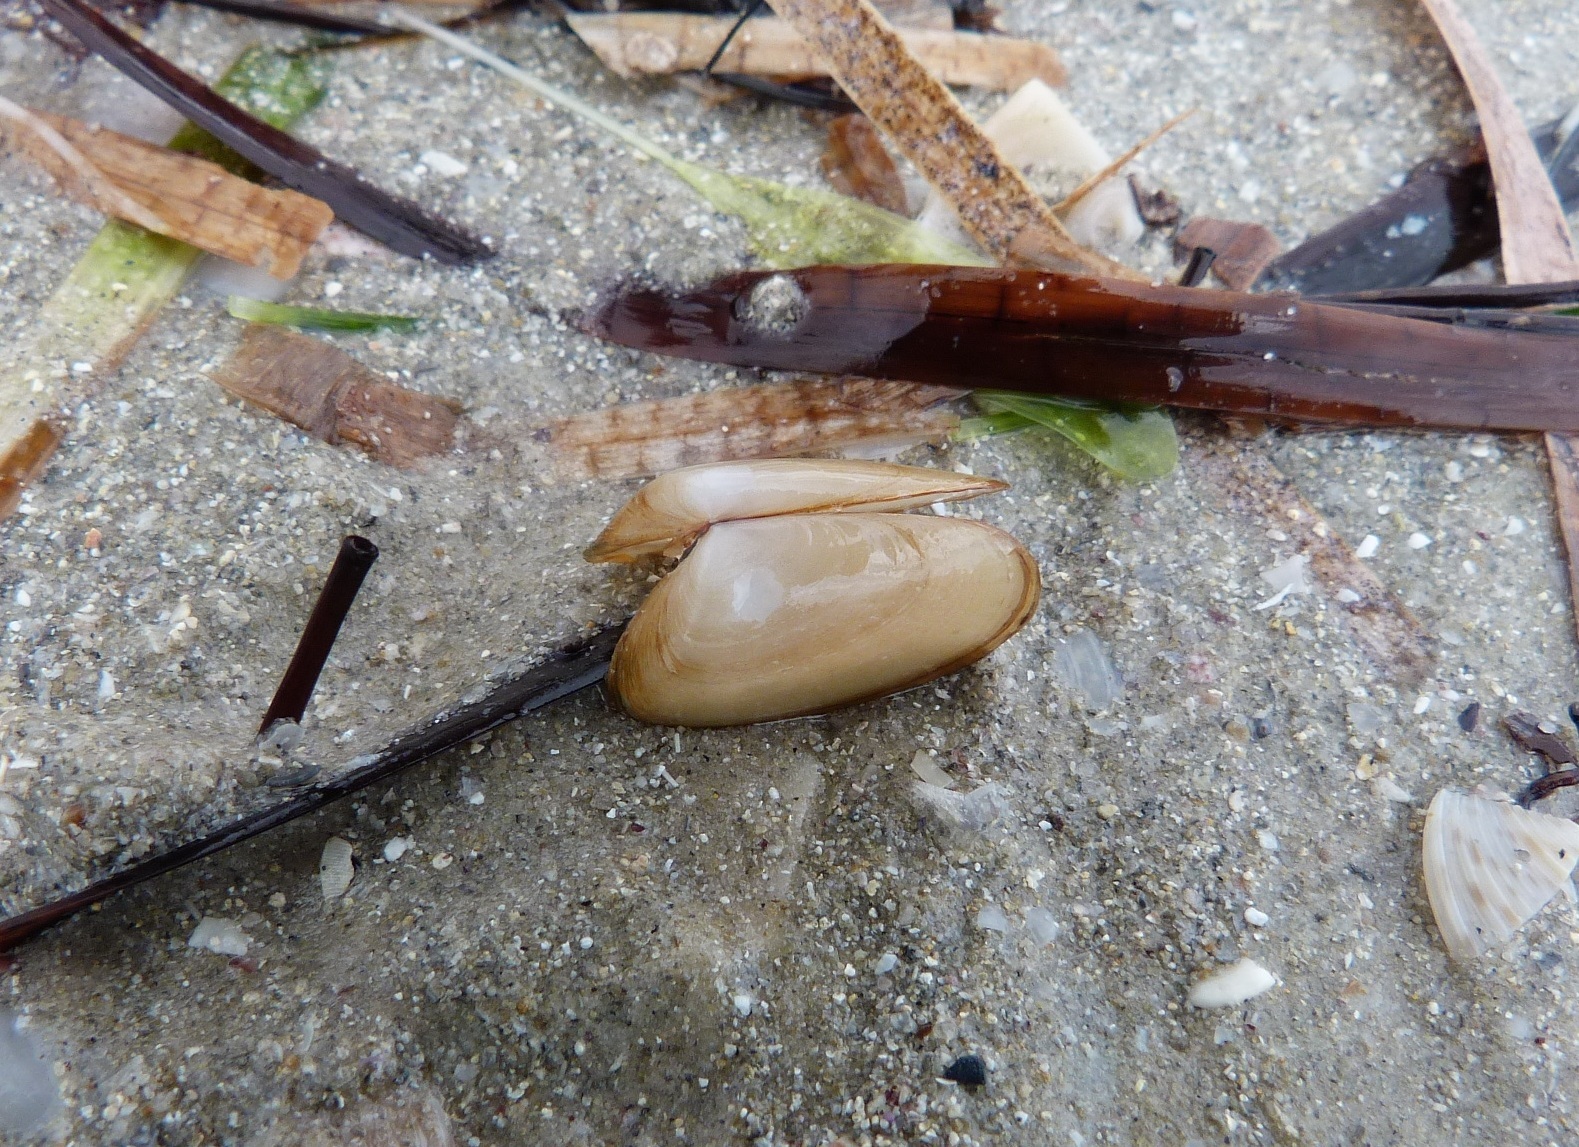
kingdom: Animalia
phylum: Mollusca
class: Bivalvia
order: Venerida
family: Mesodesmatidae
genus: Paphies
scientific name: Paphies angusta
